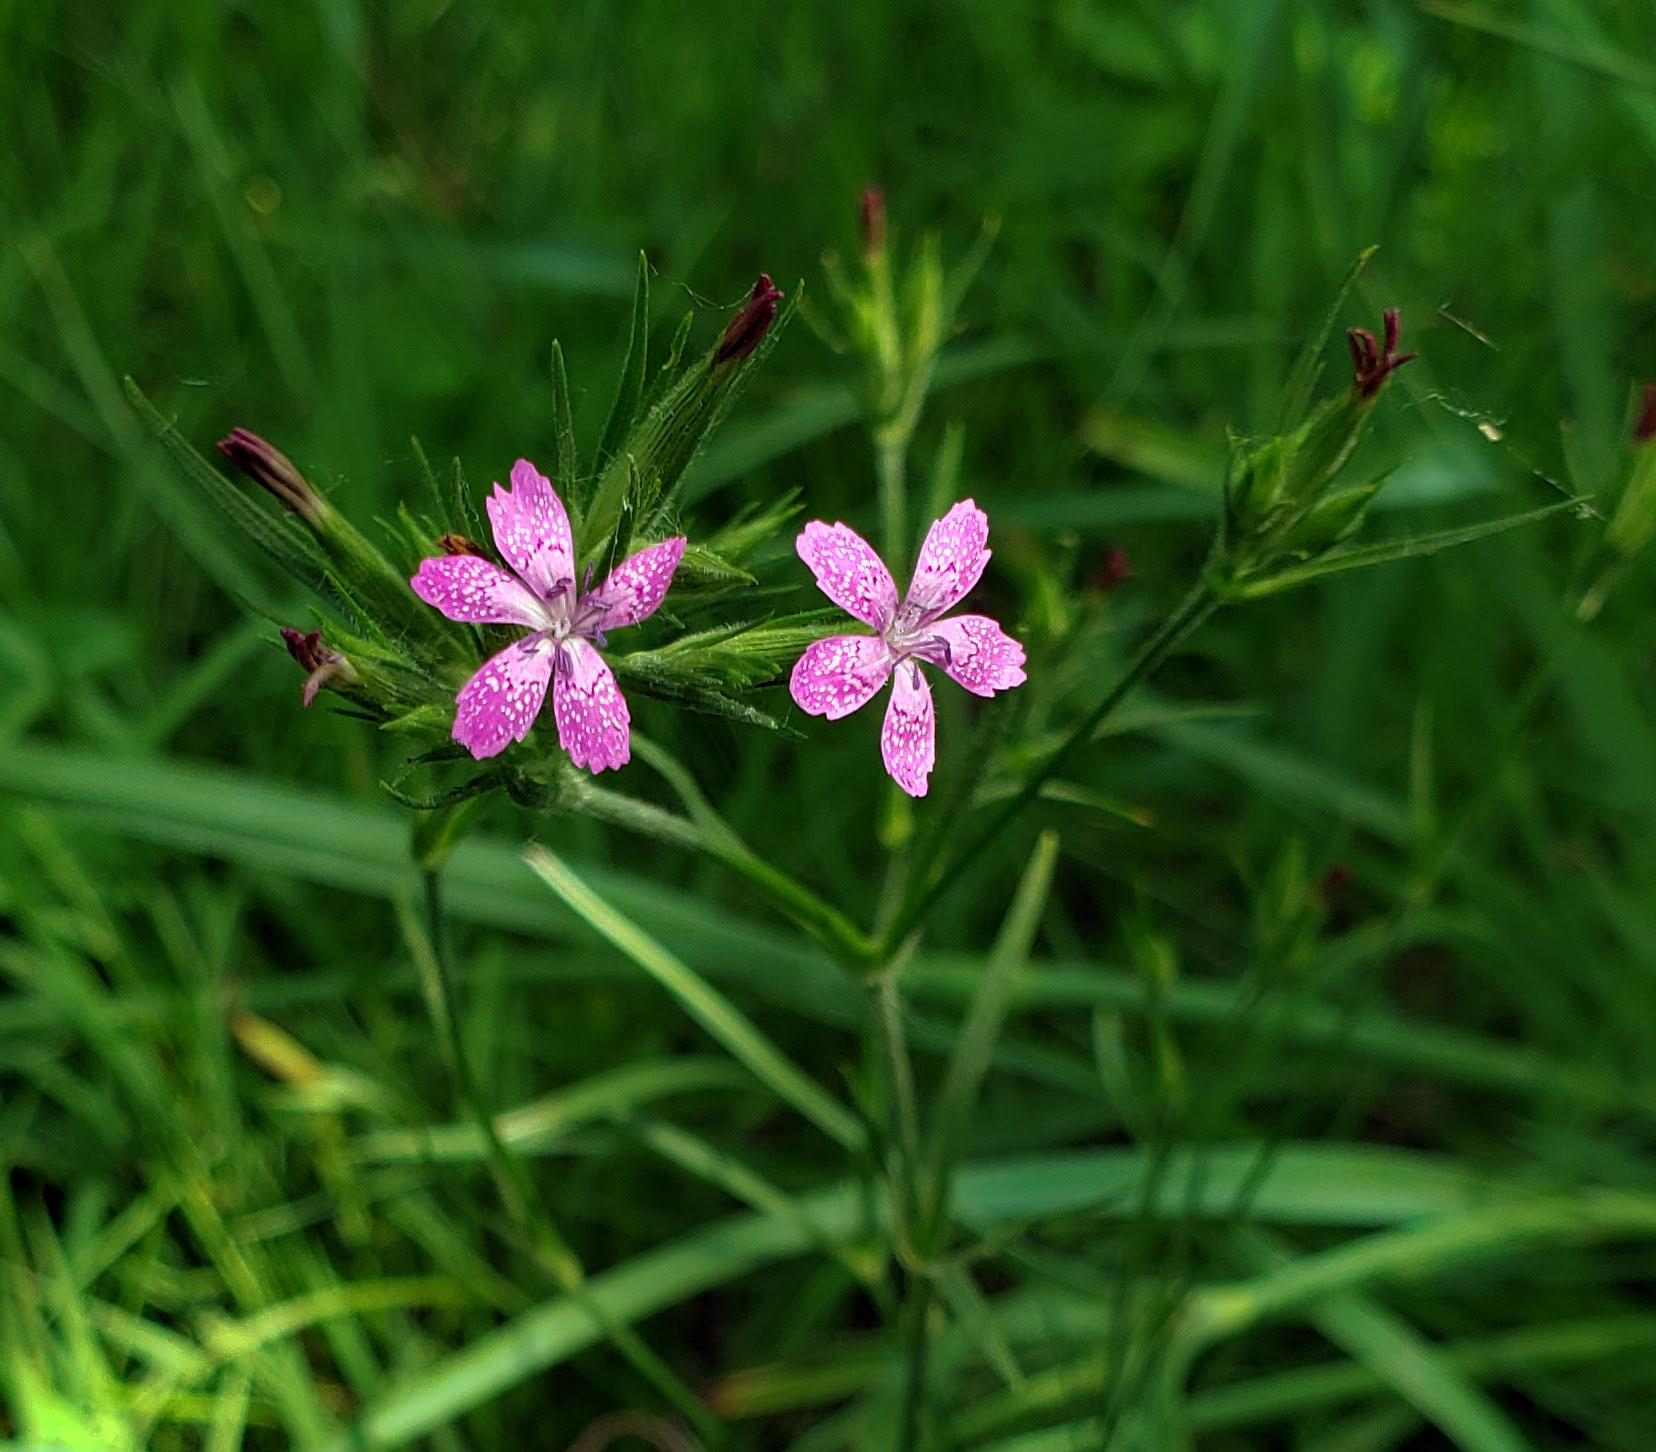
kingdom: Plantae
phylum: Tracheophyta
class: Magnoliopsida
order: Caryophyllales
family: Caryophyllaceae
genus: Dianthus
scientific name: Dianthus armeria
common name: Deptford pink
